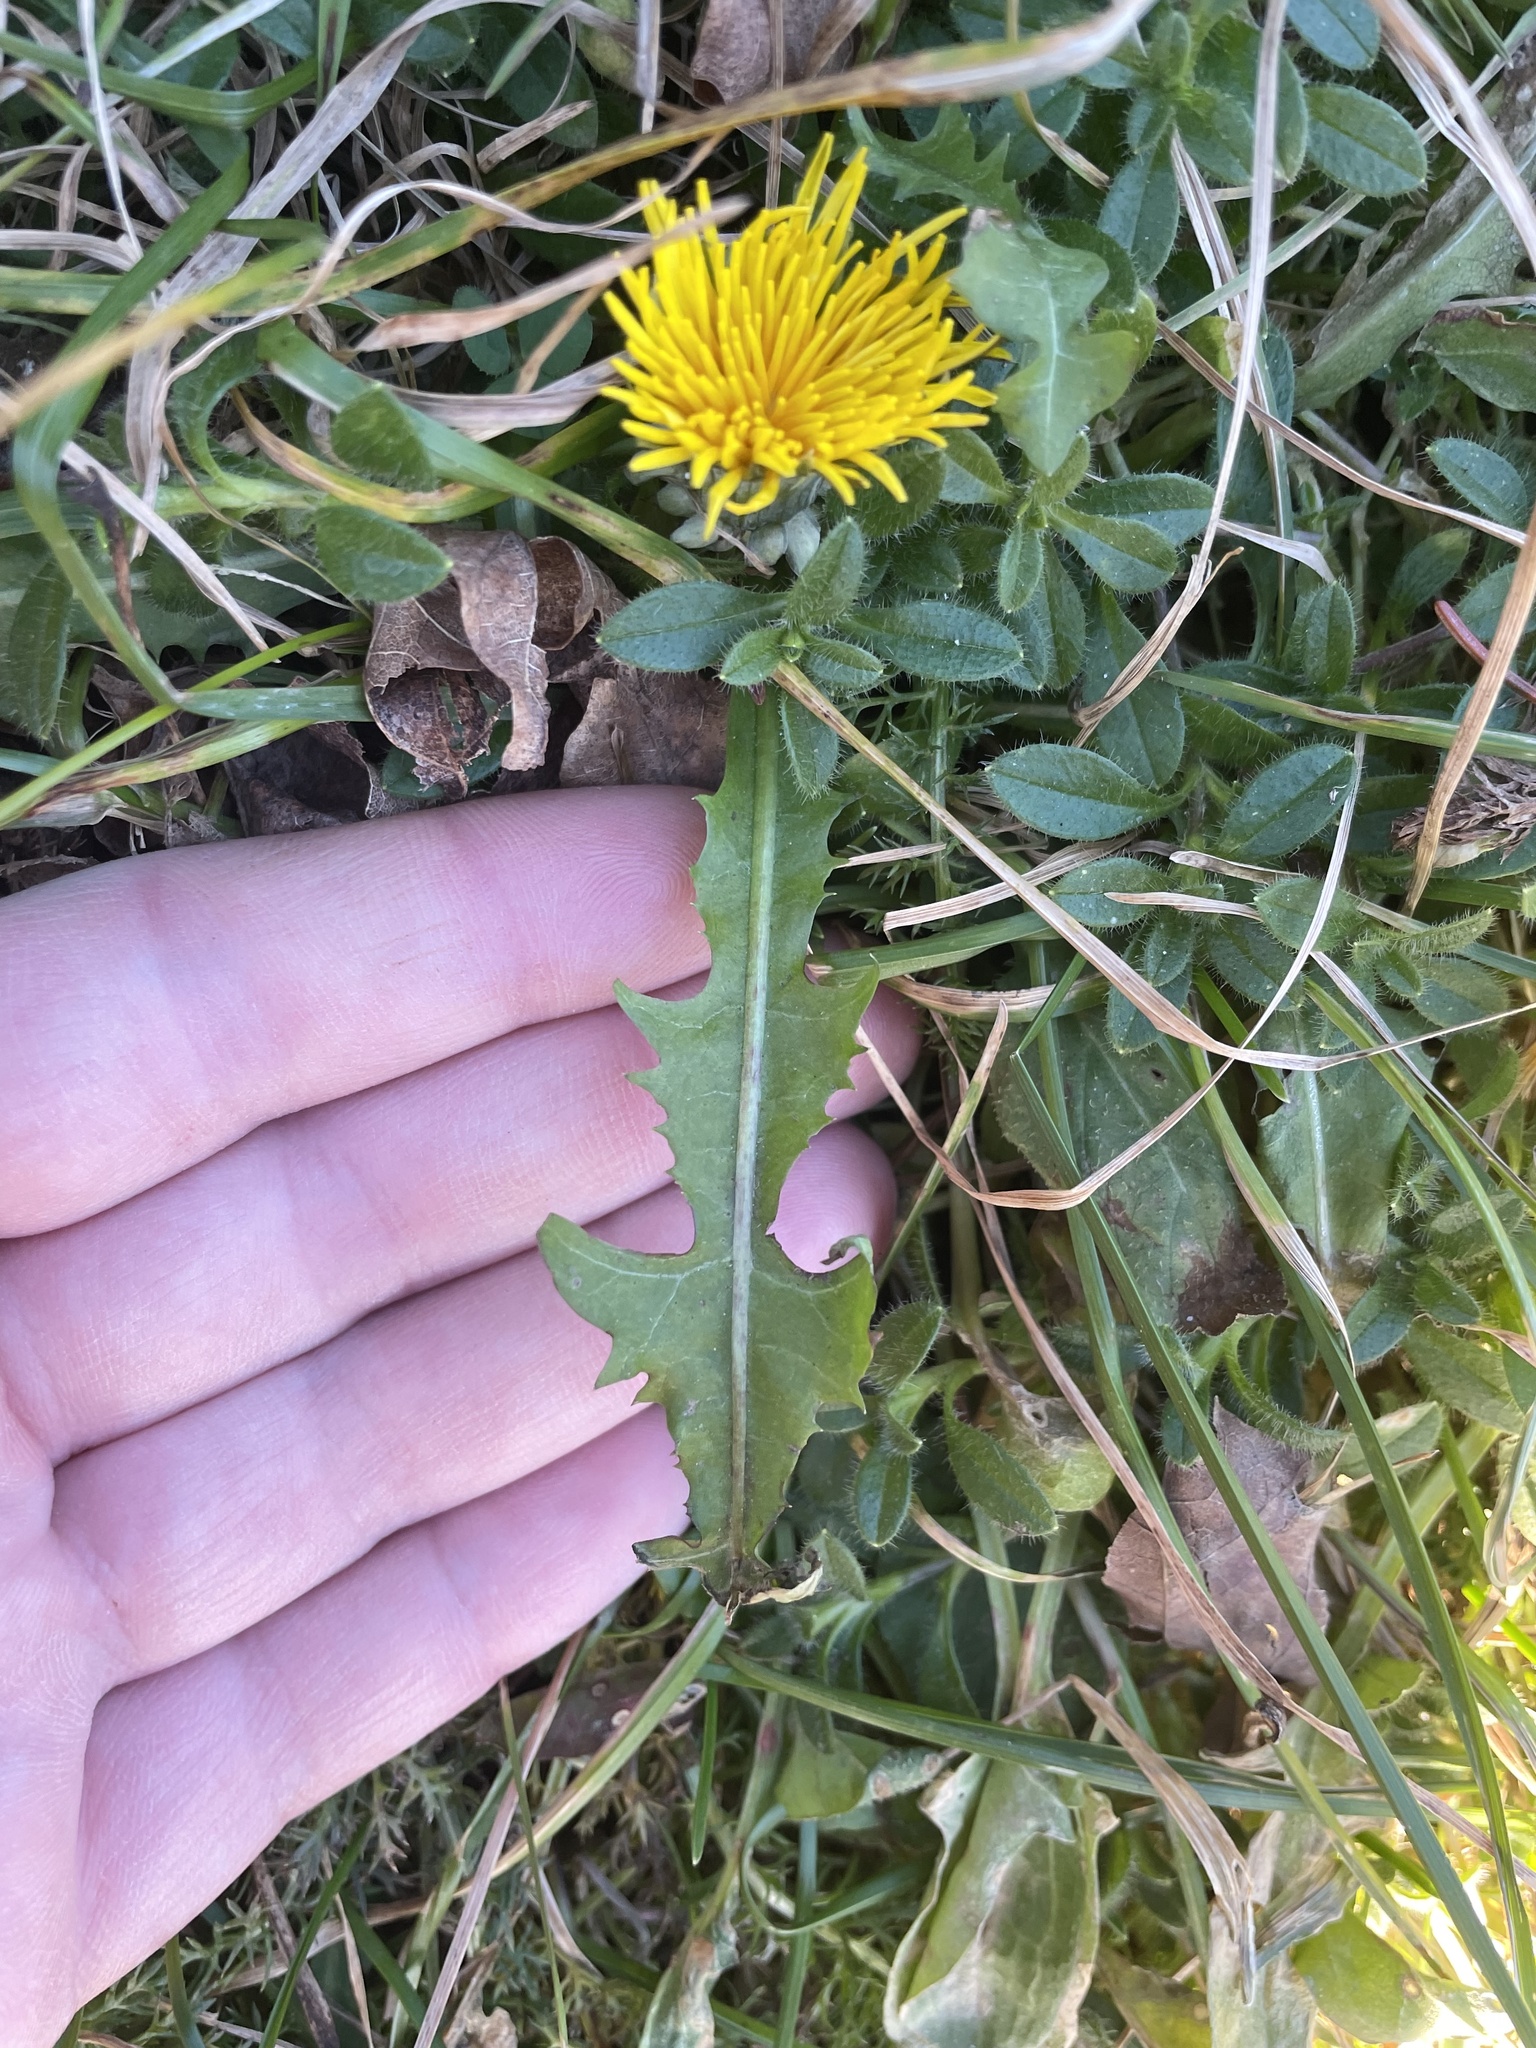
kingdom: Plantae
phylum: Tracheophyta
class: Magnoliopsida
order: Asterales
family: Asteraceae
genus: Taraxacum
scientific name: Taraxacum officinale
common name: Common dandelion
